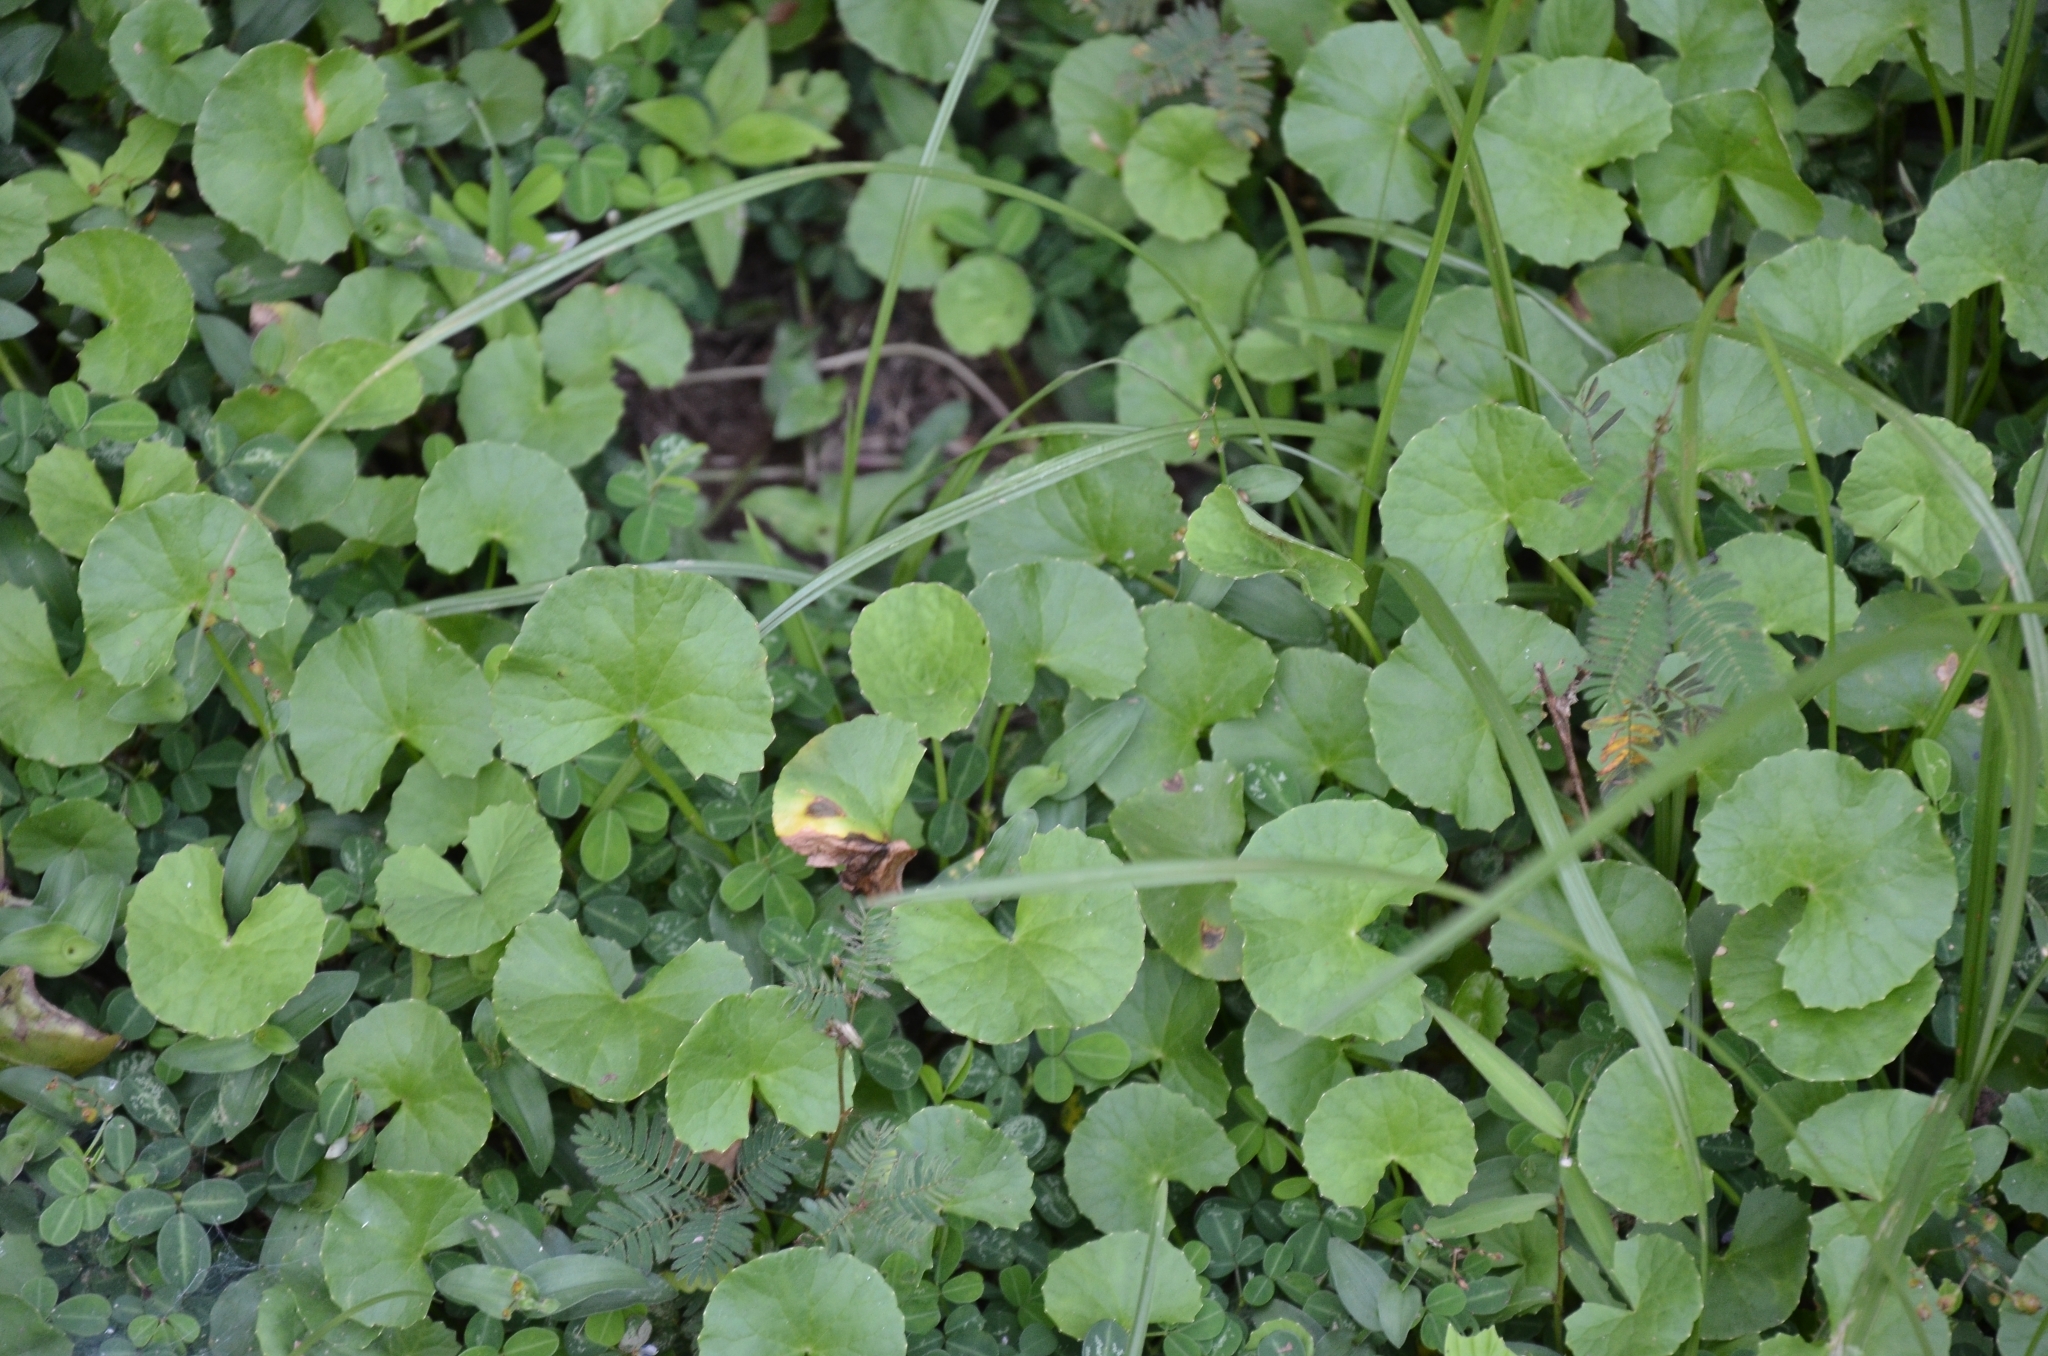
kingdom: Plantae
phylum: Tracheophyta
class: Magnoliopsida
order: Apiales
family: Apiaceae
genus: Centella
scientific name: Centella asiatica
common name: Spadeleaf
